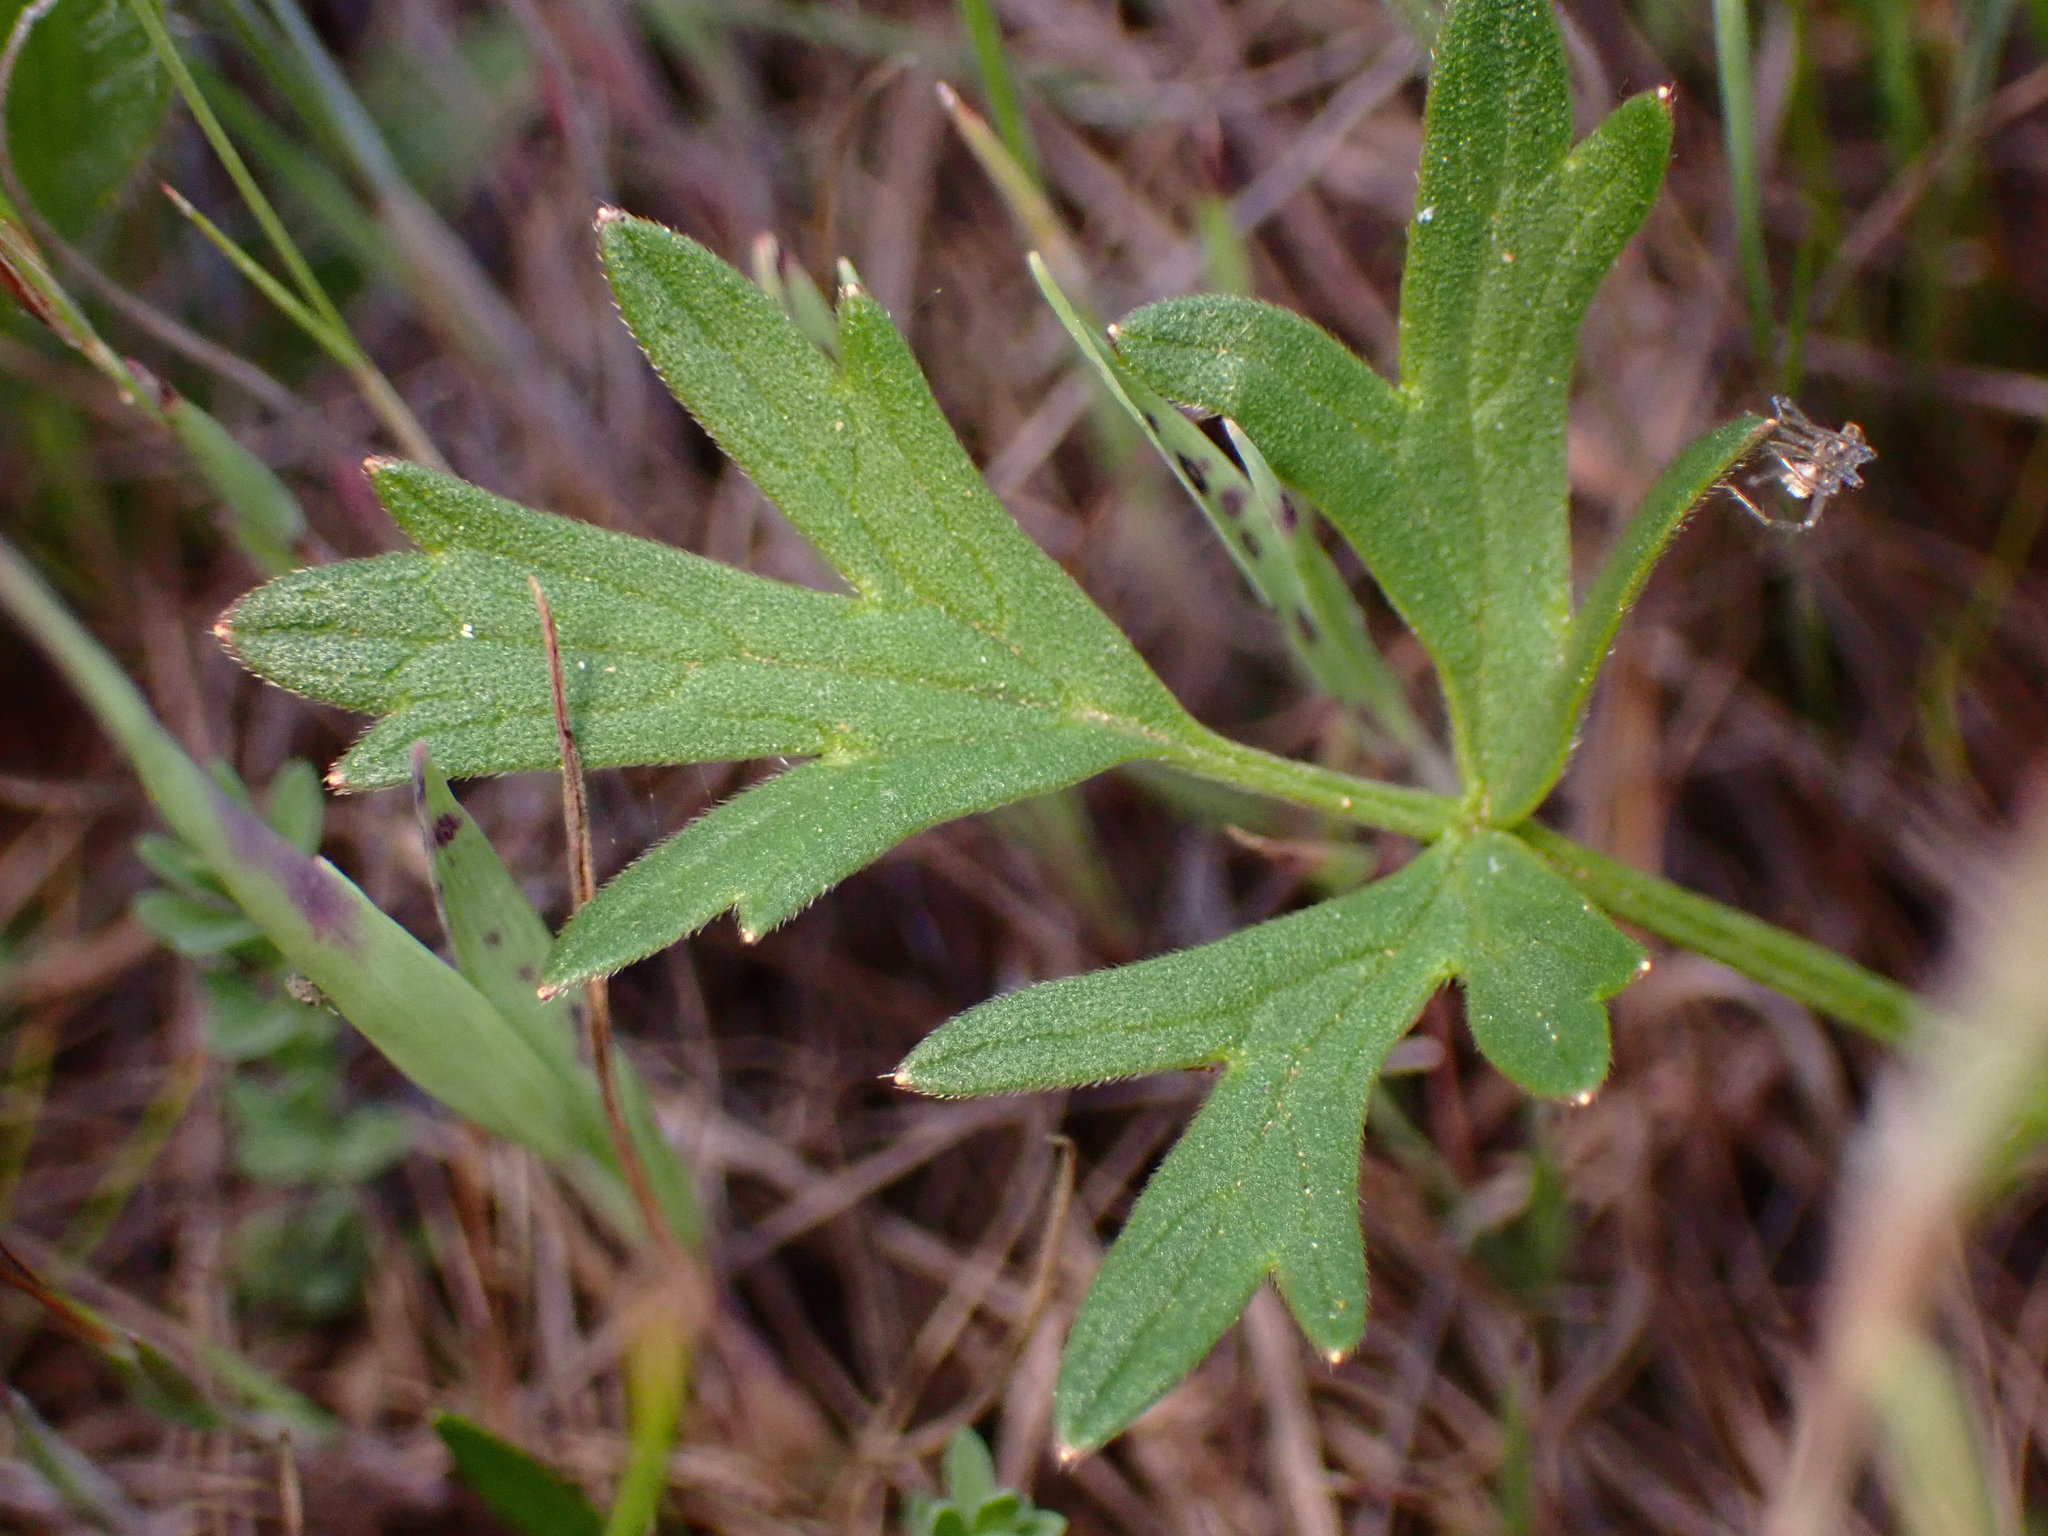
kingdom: Plantae
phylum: Tracheophyta
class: Magnoliopsida
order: Ranunculales
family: Ranunculaceae
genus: Ranunculus
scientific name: Ranunculus californicus
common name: California buttercup
